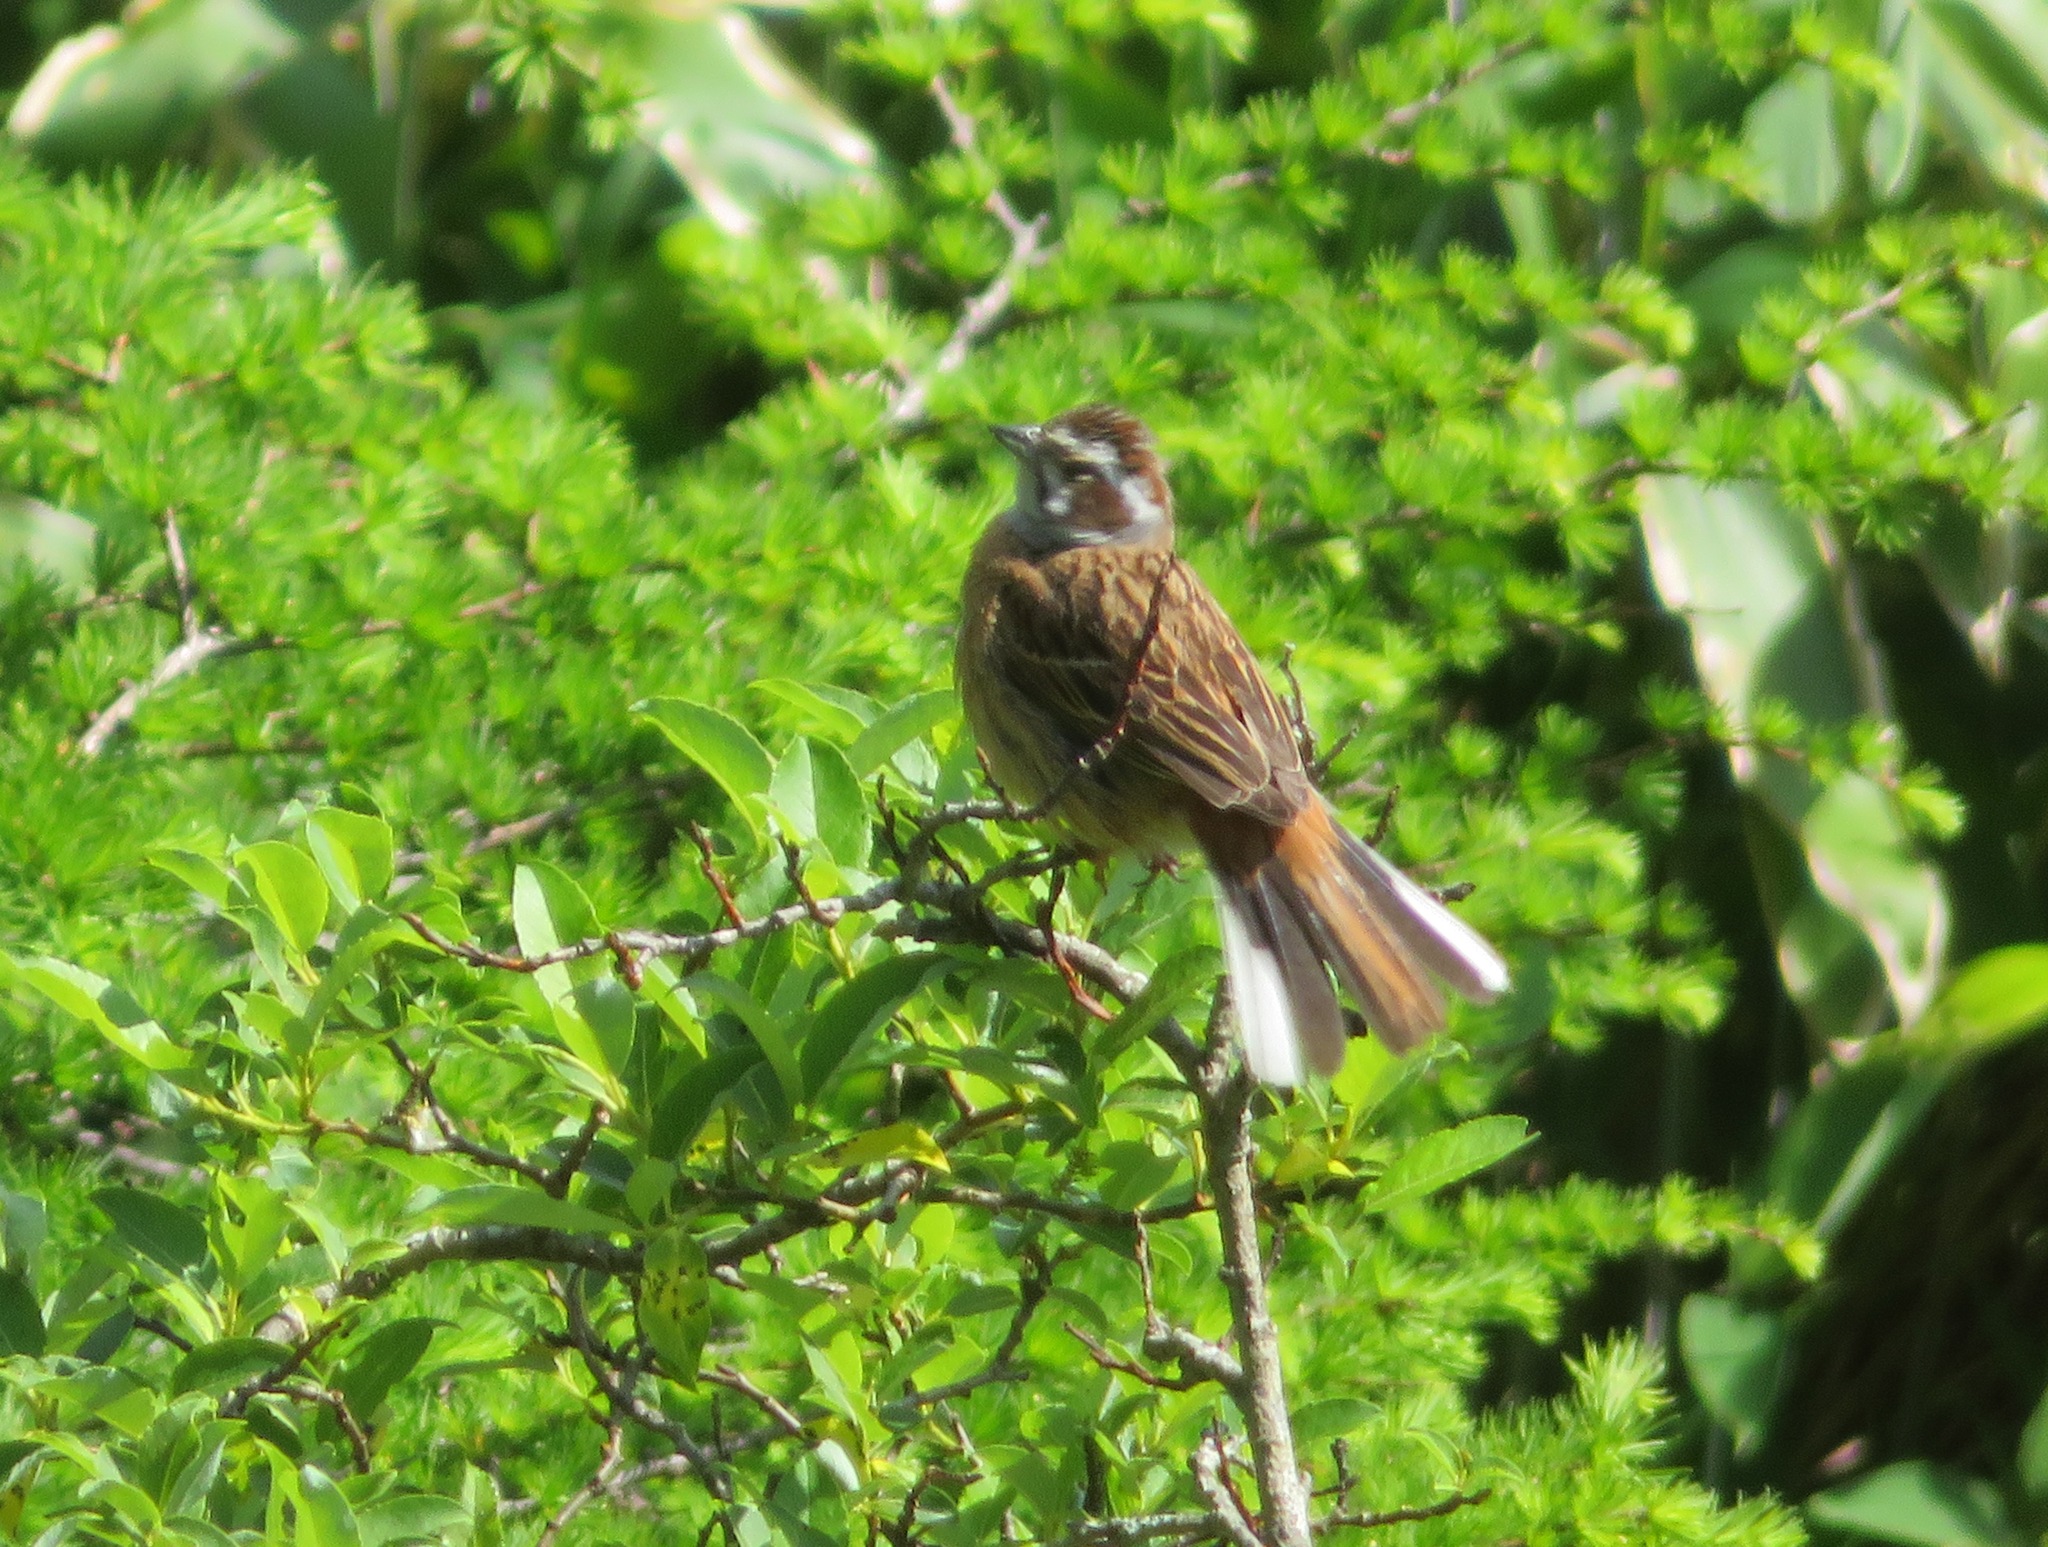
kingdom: Animalia
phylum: Chordata
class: Aves
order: Passeriformes
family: Emberizidae
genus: Emberiza
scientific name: Emberiza cioides
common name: Meadow bunting
